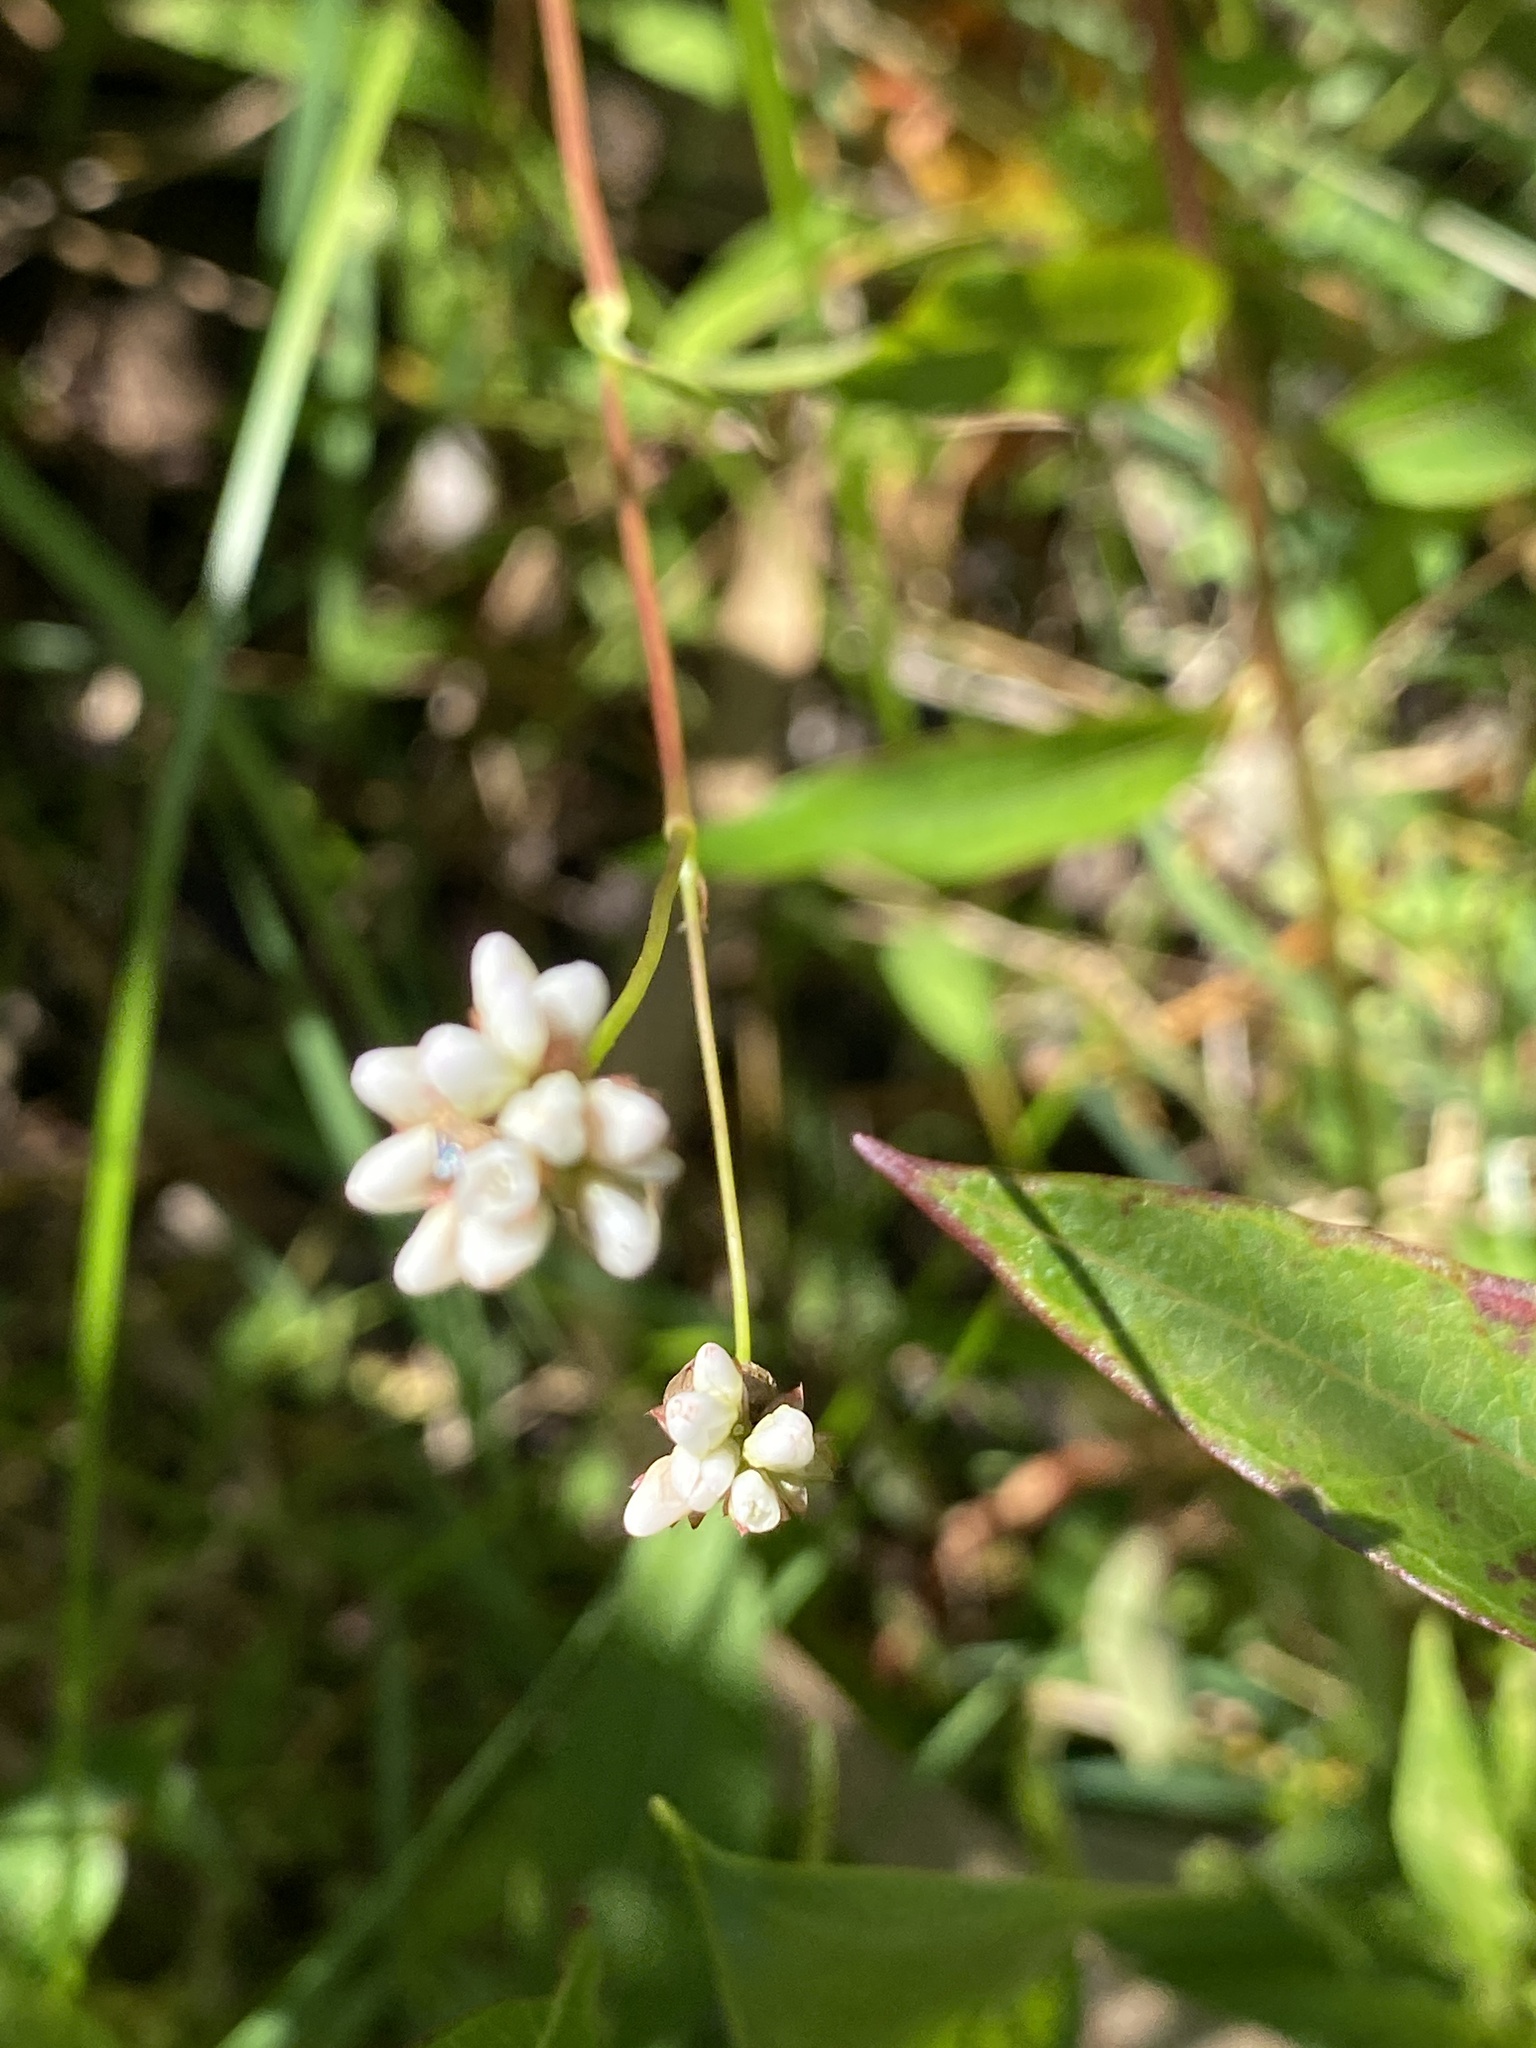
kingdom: Plantae
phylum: Tracheophyta
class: Magnoliopsida
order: Caryophyllales
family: Polygonaceae
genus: Persicaria
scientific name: Persicaria sagittata
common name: American tearthumb
